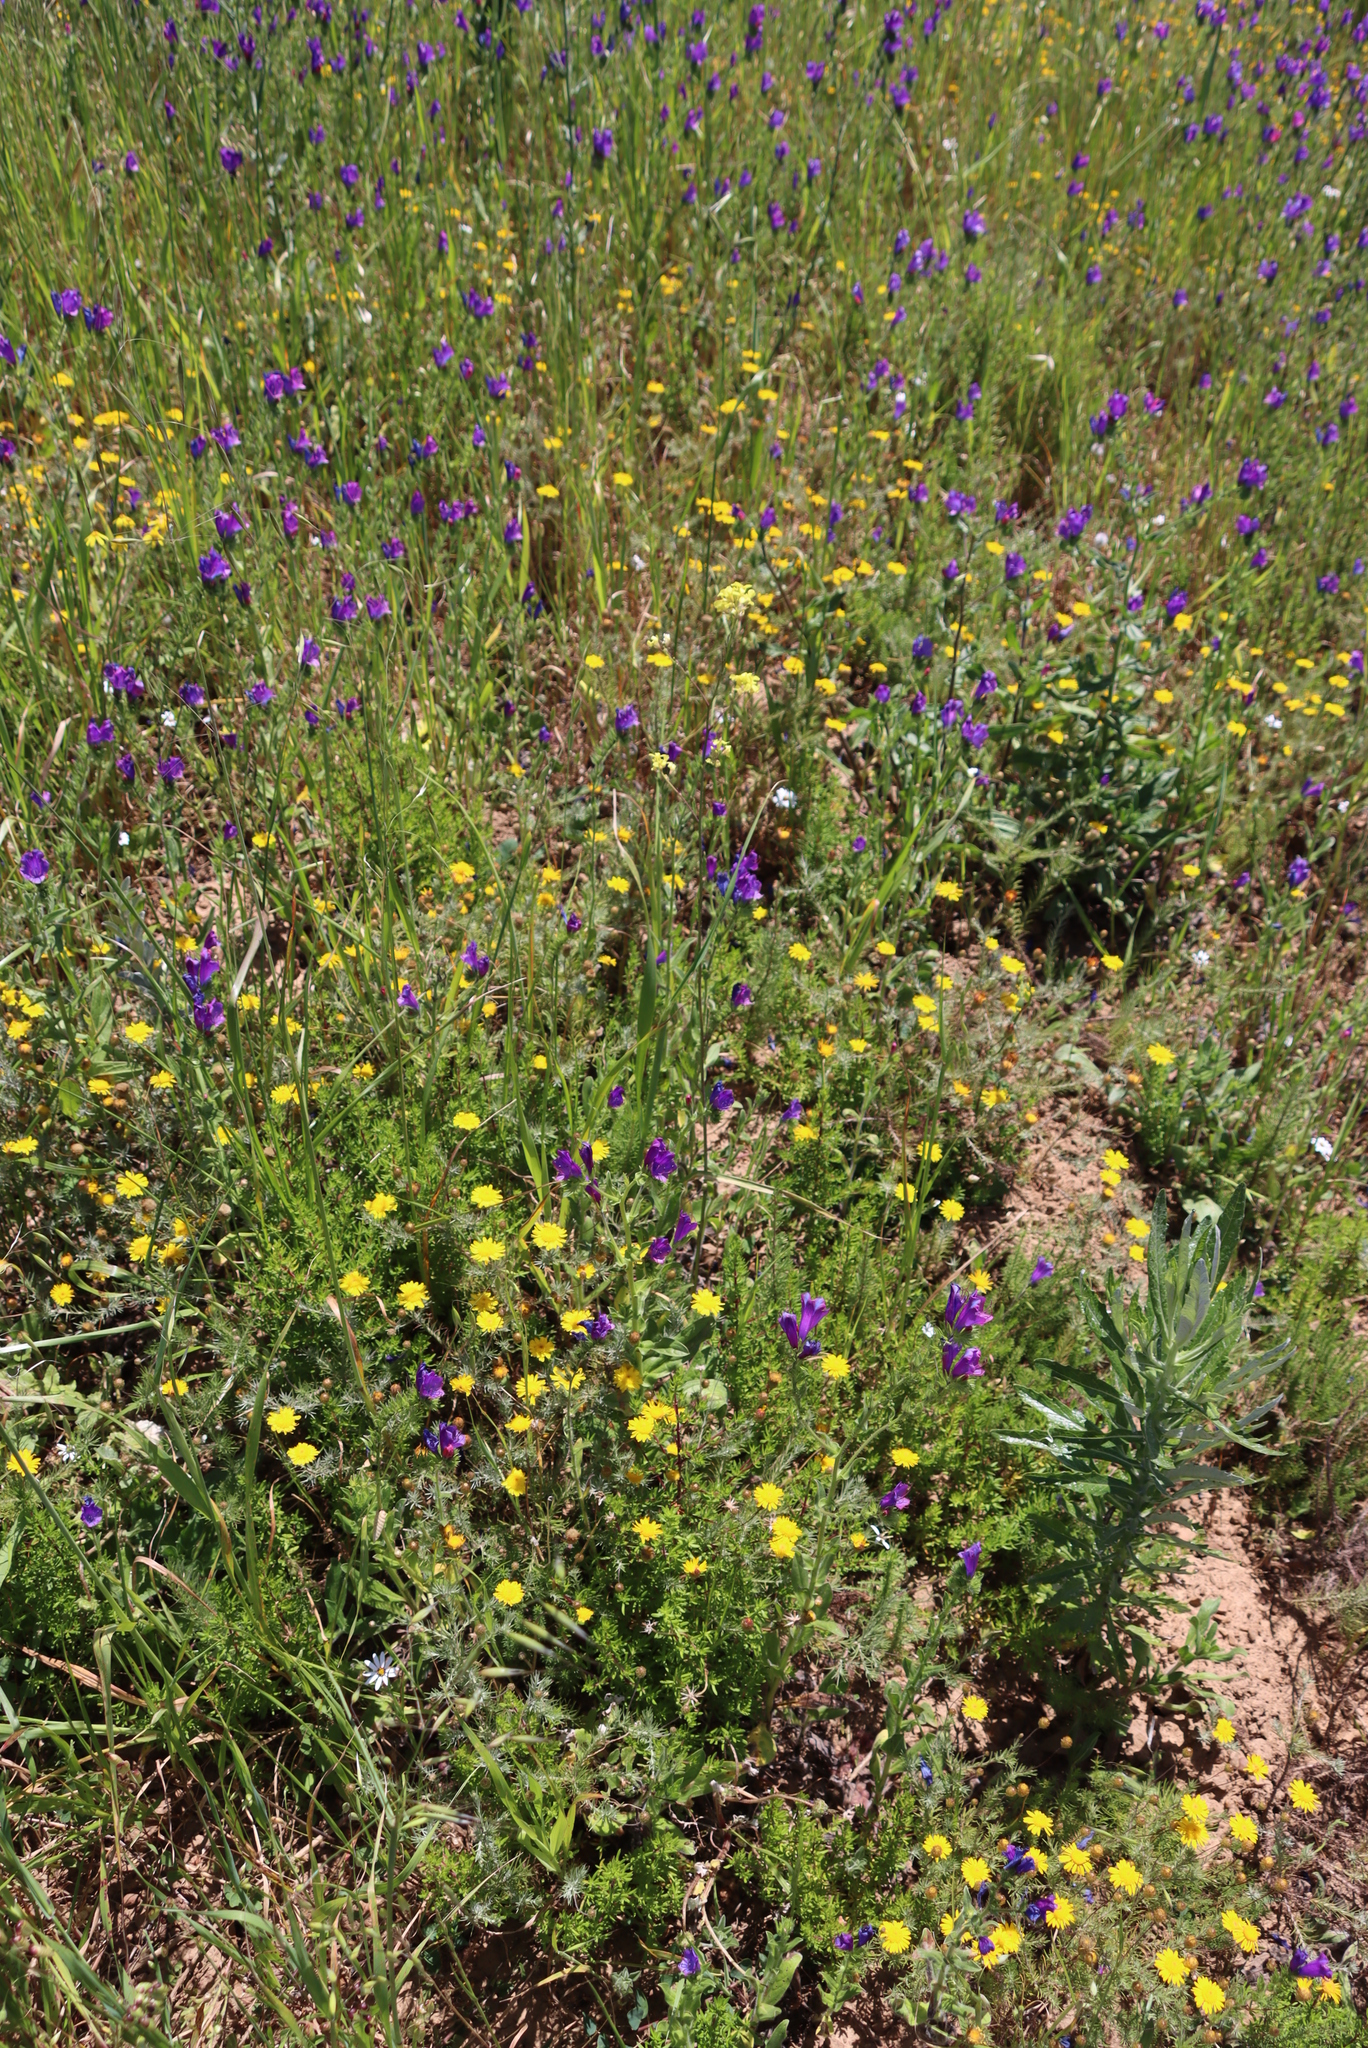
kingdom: Plantae
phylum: Tracheophyta
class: Magnoliopsida
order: Brassicales
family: Brassicaceae
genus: Rapistrum
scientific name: Rapistrum rugosum
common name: Annual bastardcabbage
